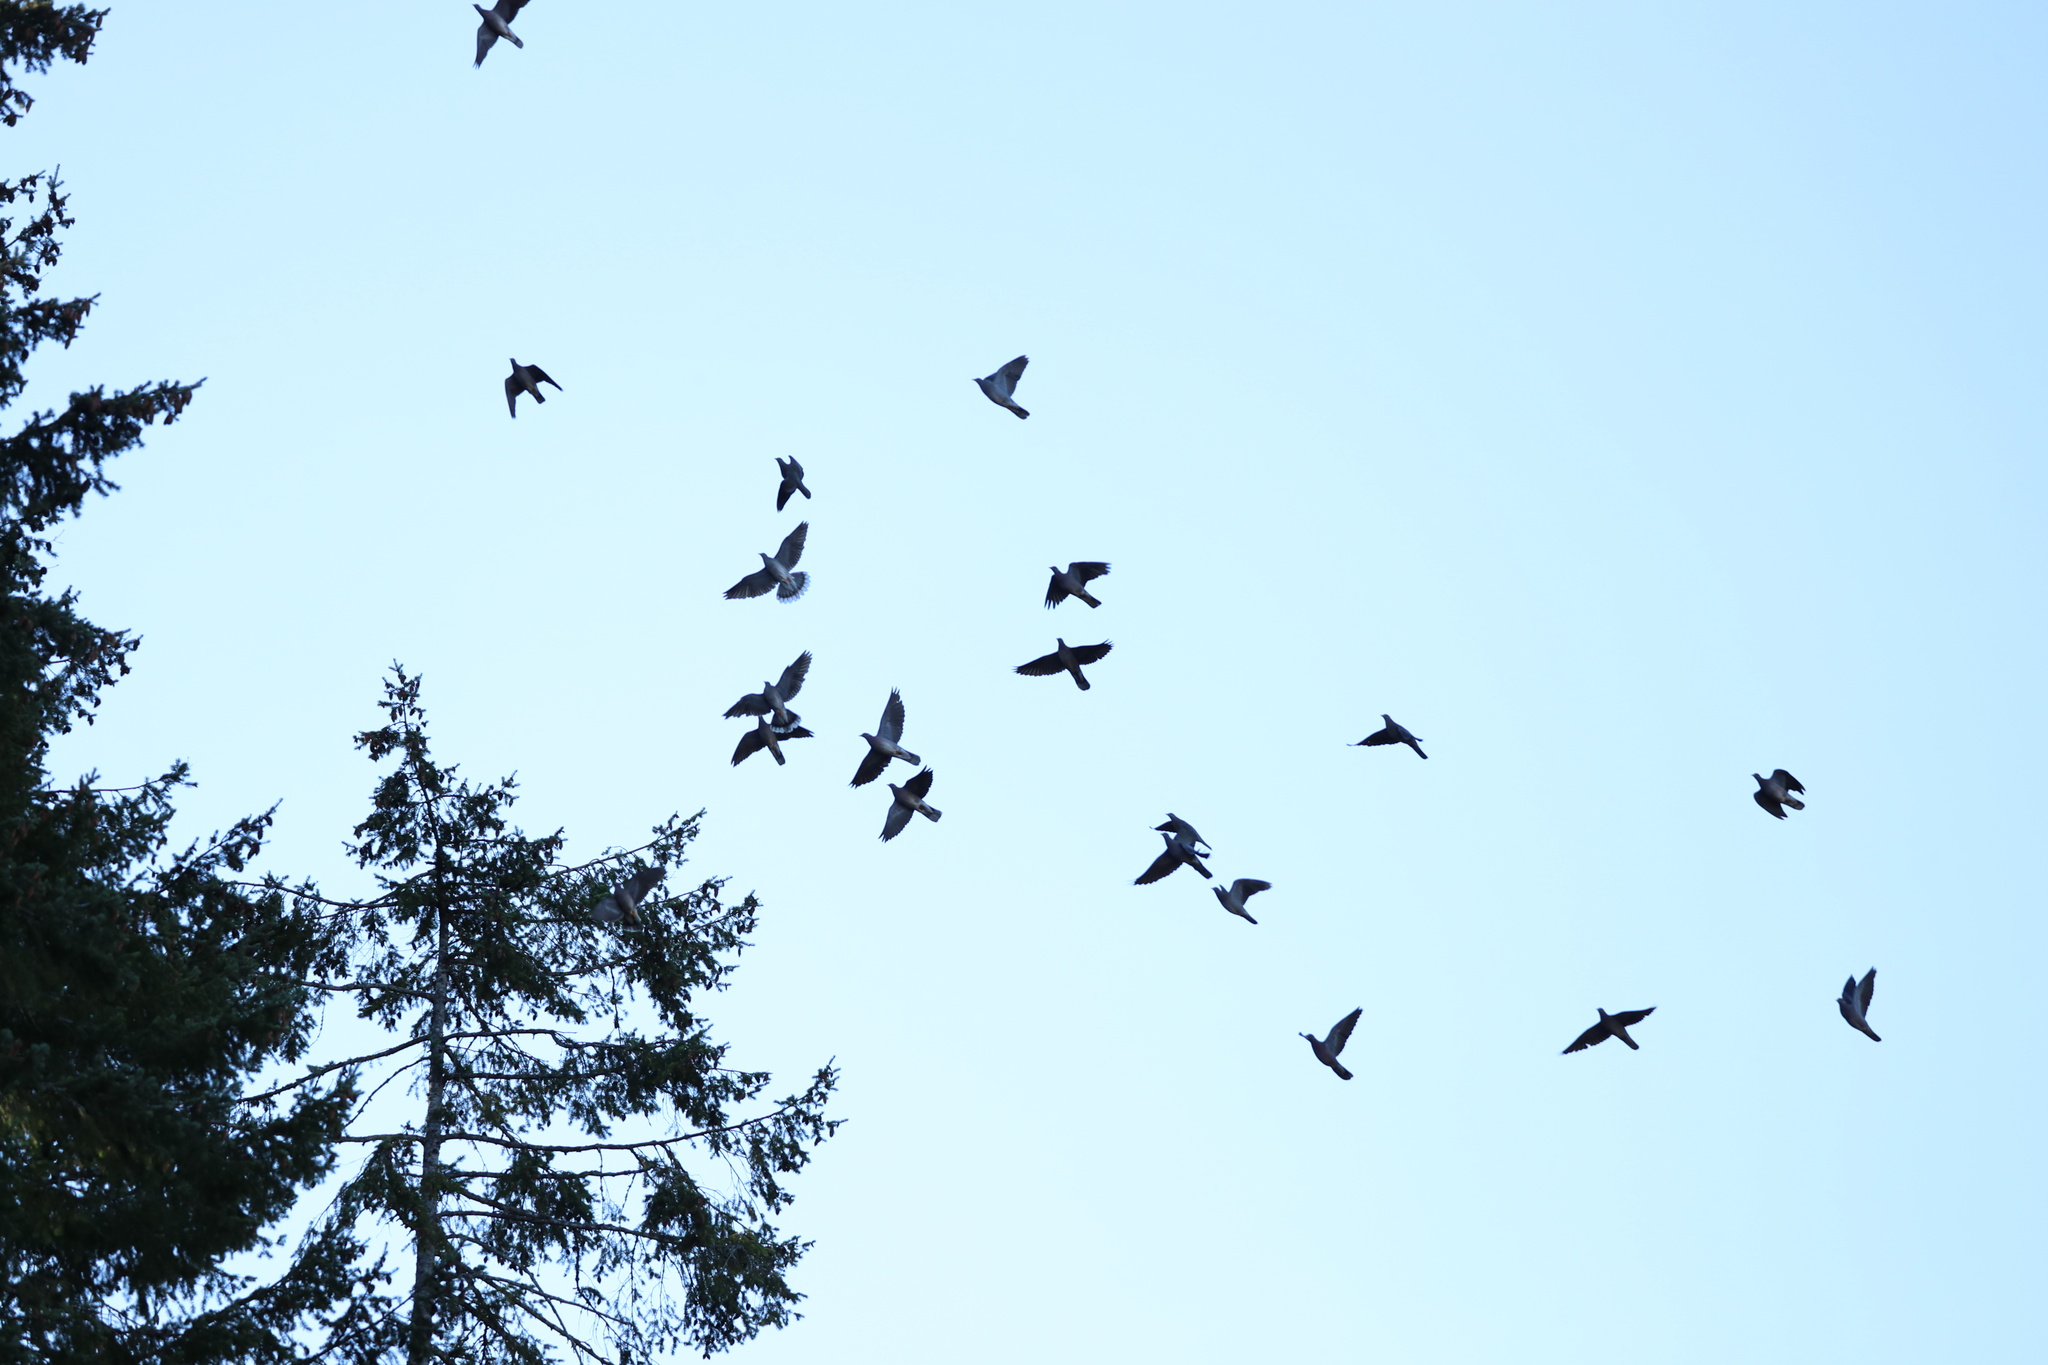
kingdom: Animalia
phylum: Chordata
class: Aves
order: Columbiformes
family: Columbidae
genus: Patagioenas
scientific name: Patagioenas fasciata
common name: Band-tailed pigeon
